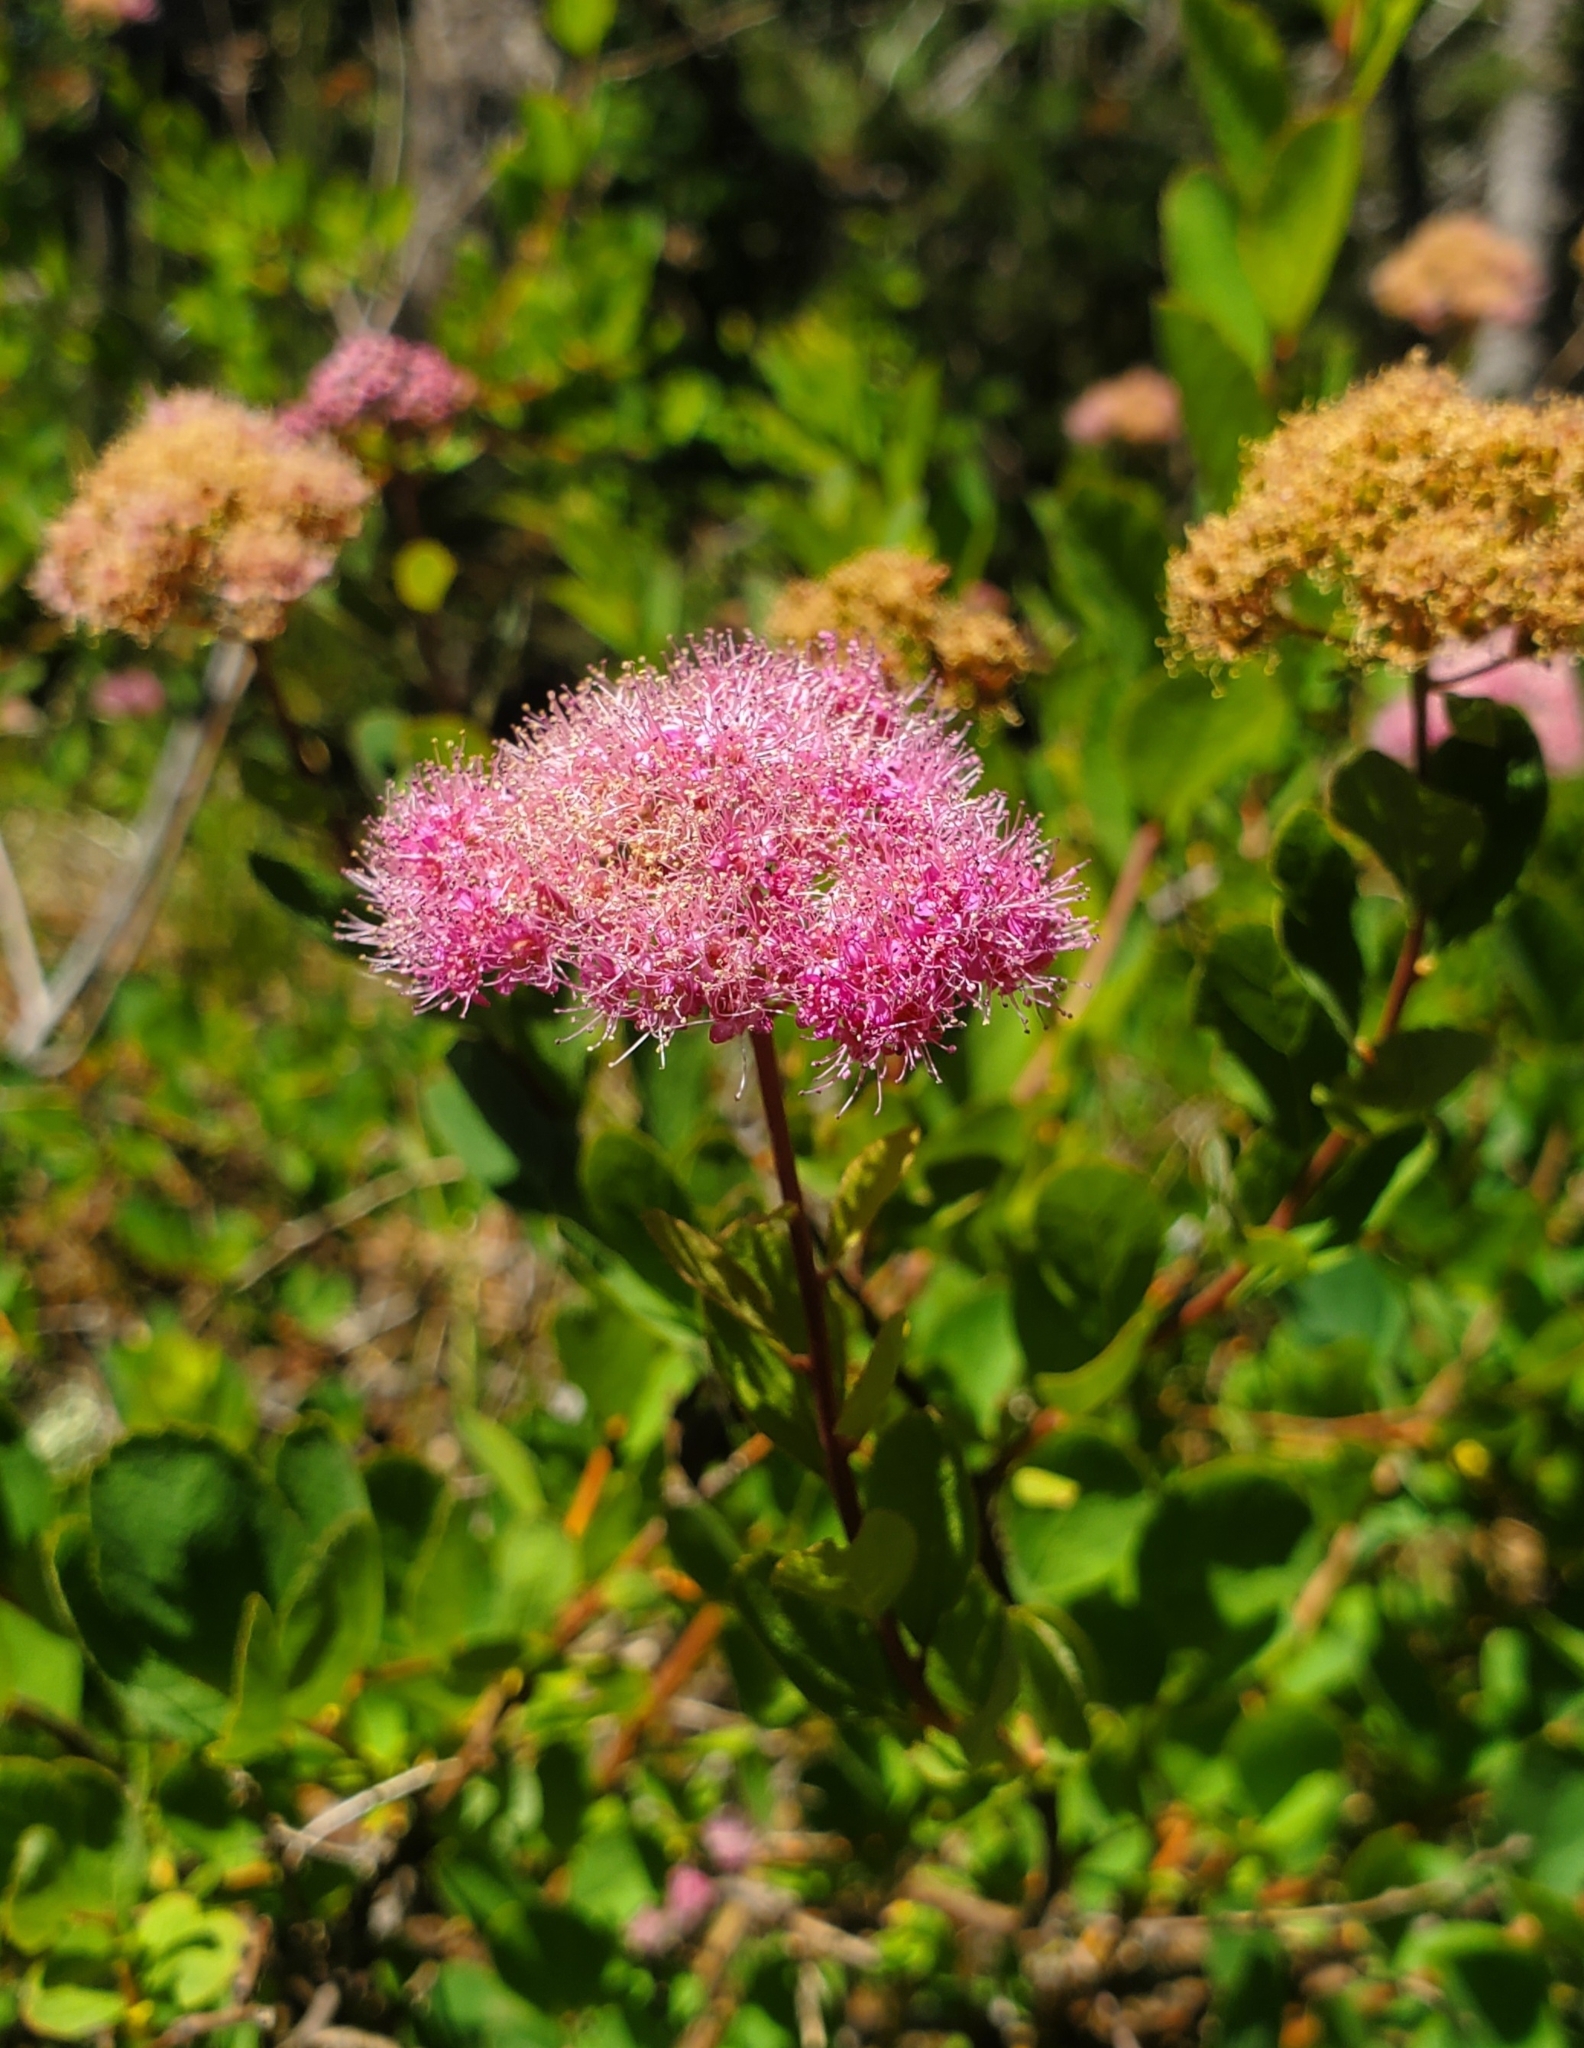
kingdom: Plantae
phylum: Tracheophyta
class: Magnoliopsida
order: Rosales
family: Rosaceae
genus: Spiraea
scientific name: Spiraea splendens
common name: Subalpine meadowsweet
